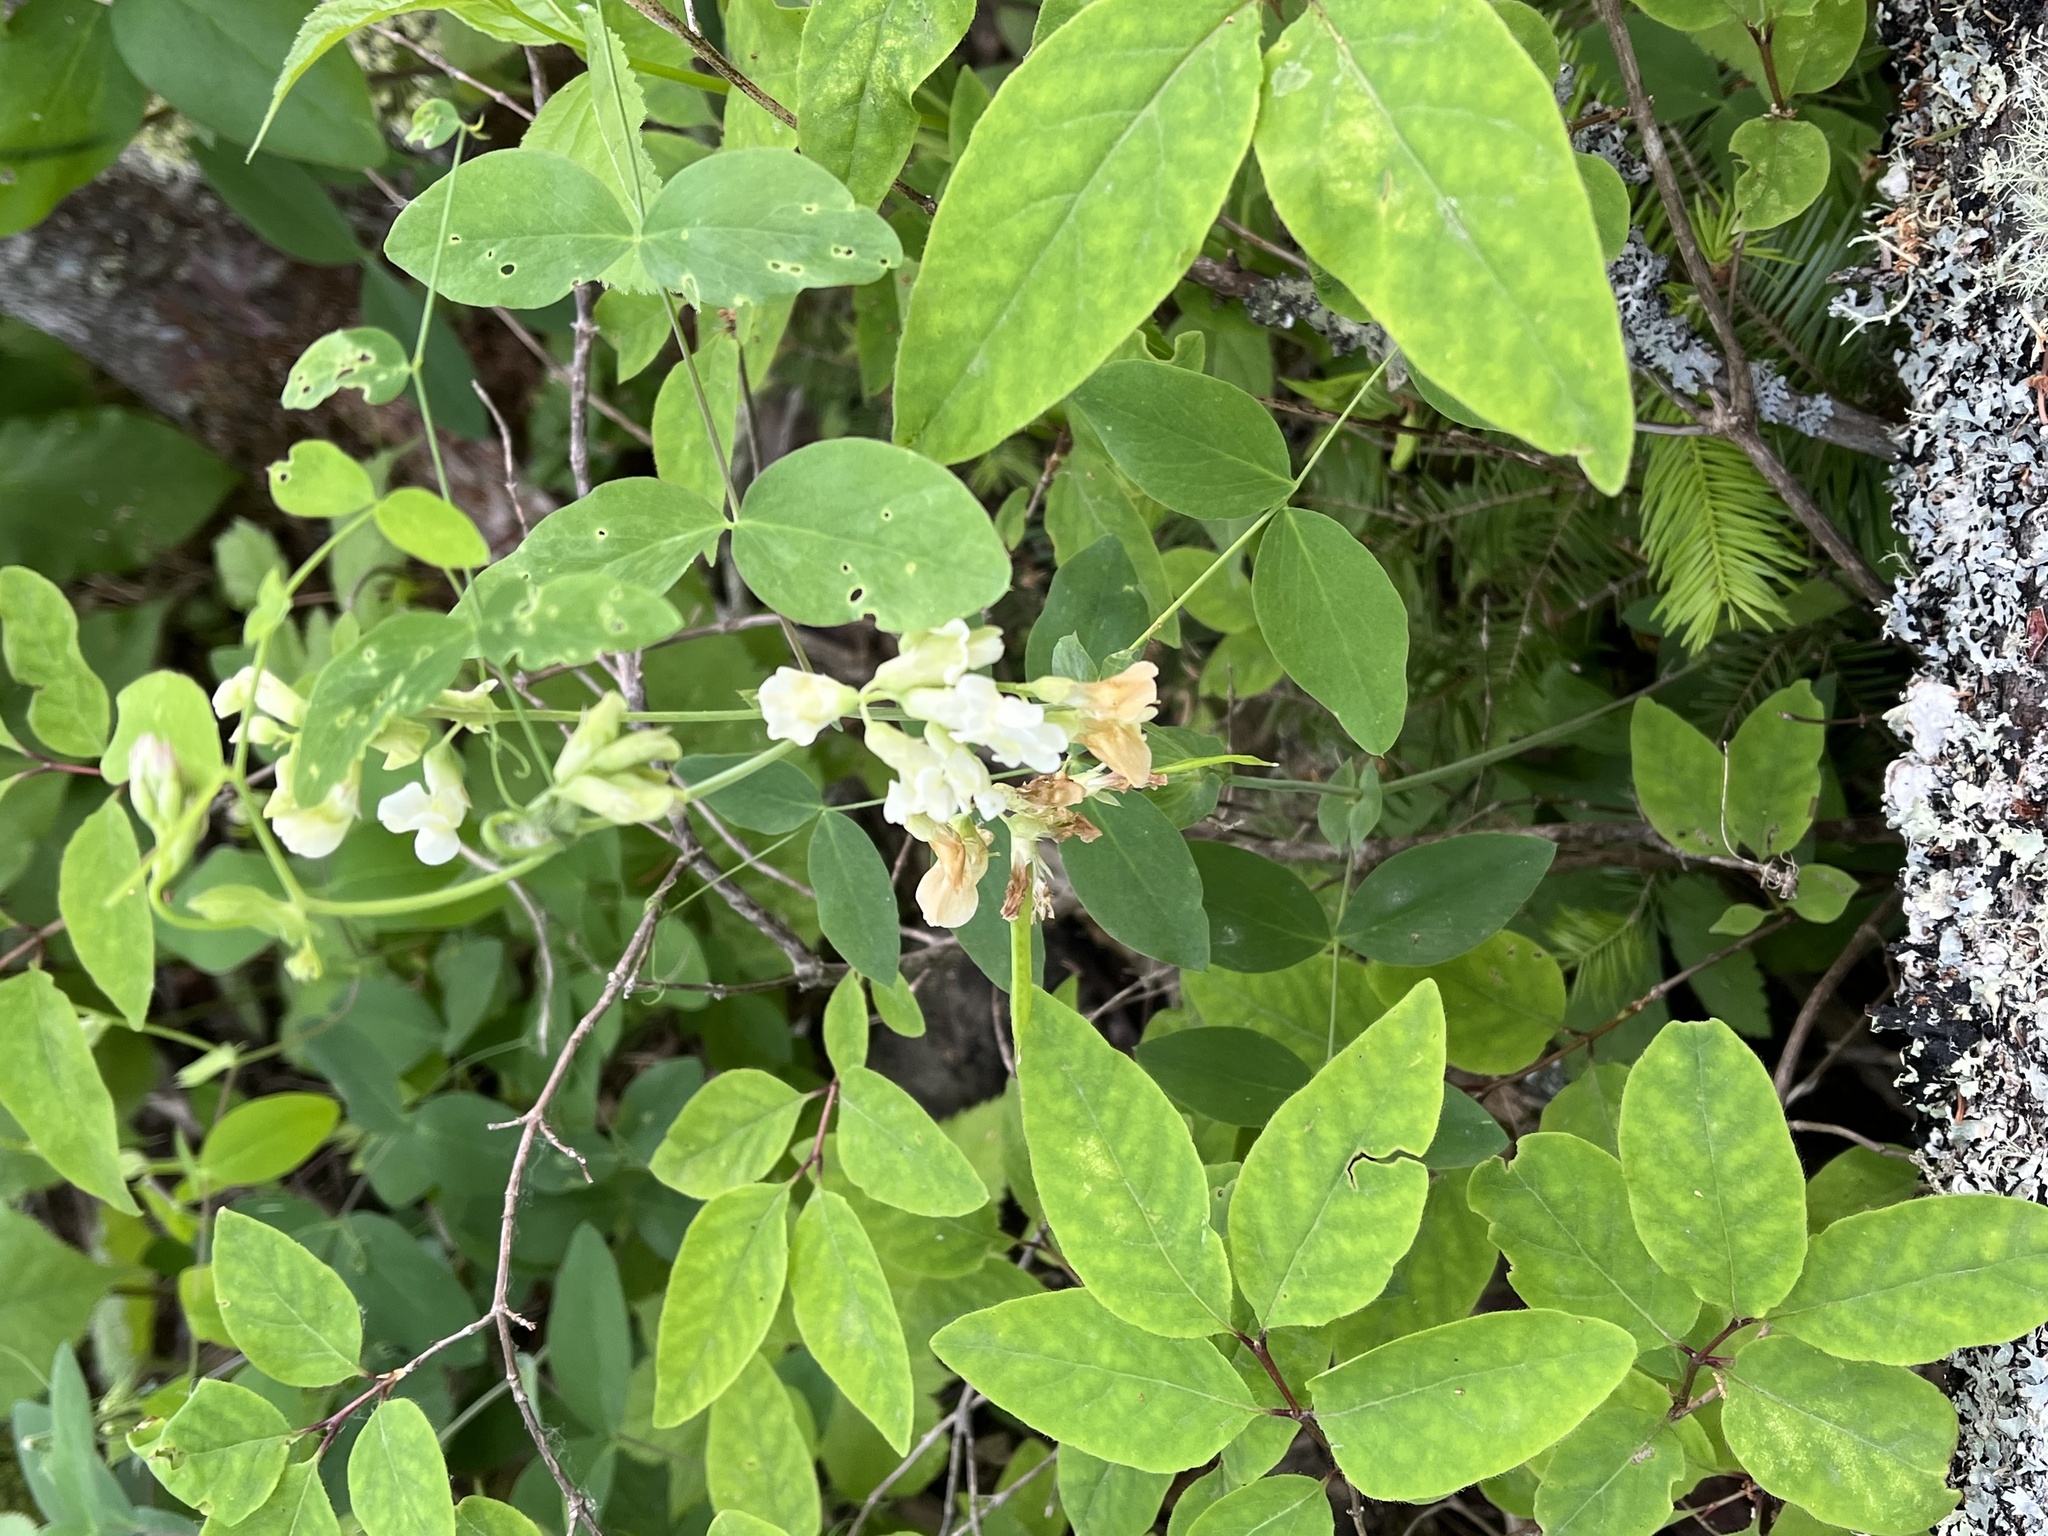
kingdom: Plantae
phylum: Tracheophyta
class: Magnoliopsida
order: Fabales
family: Fabaceae
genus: Lathyrus
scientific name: Lathyrus ochroleucus
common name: Pale vetchling
